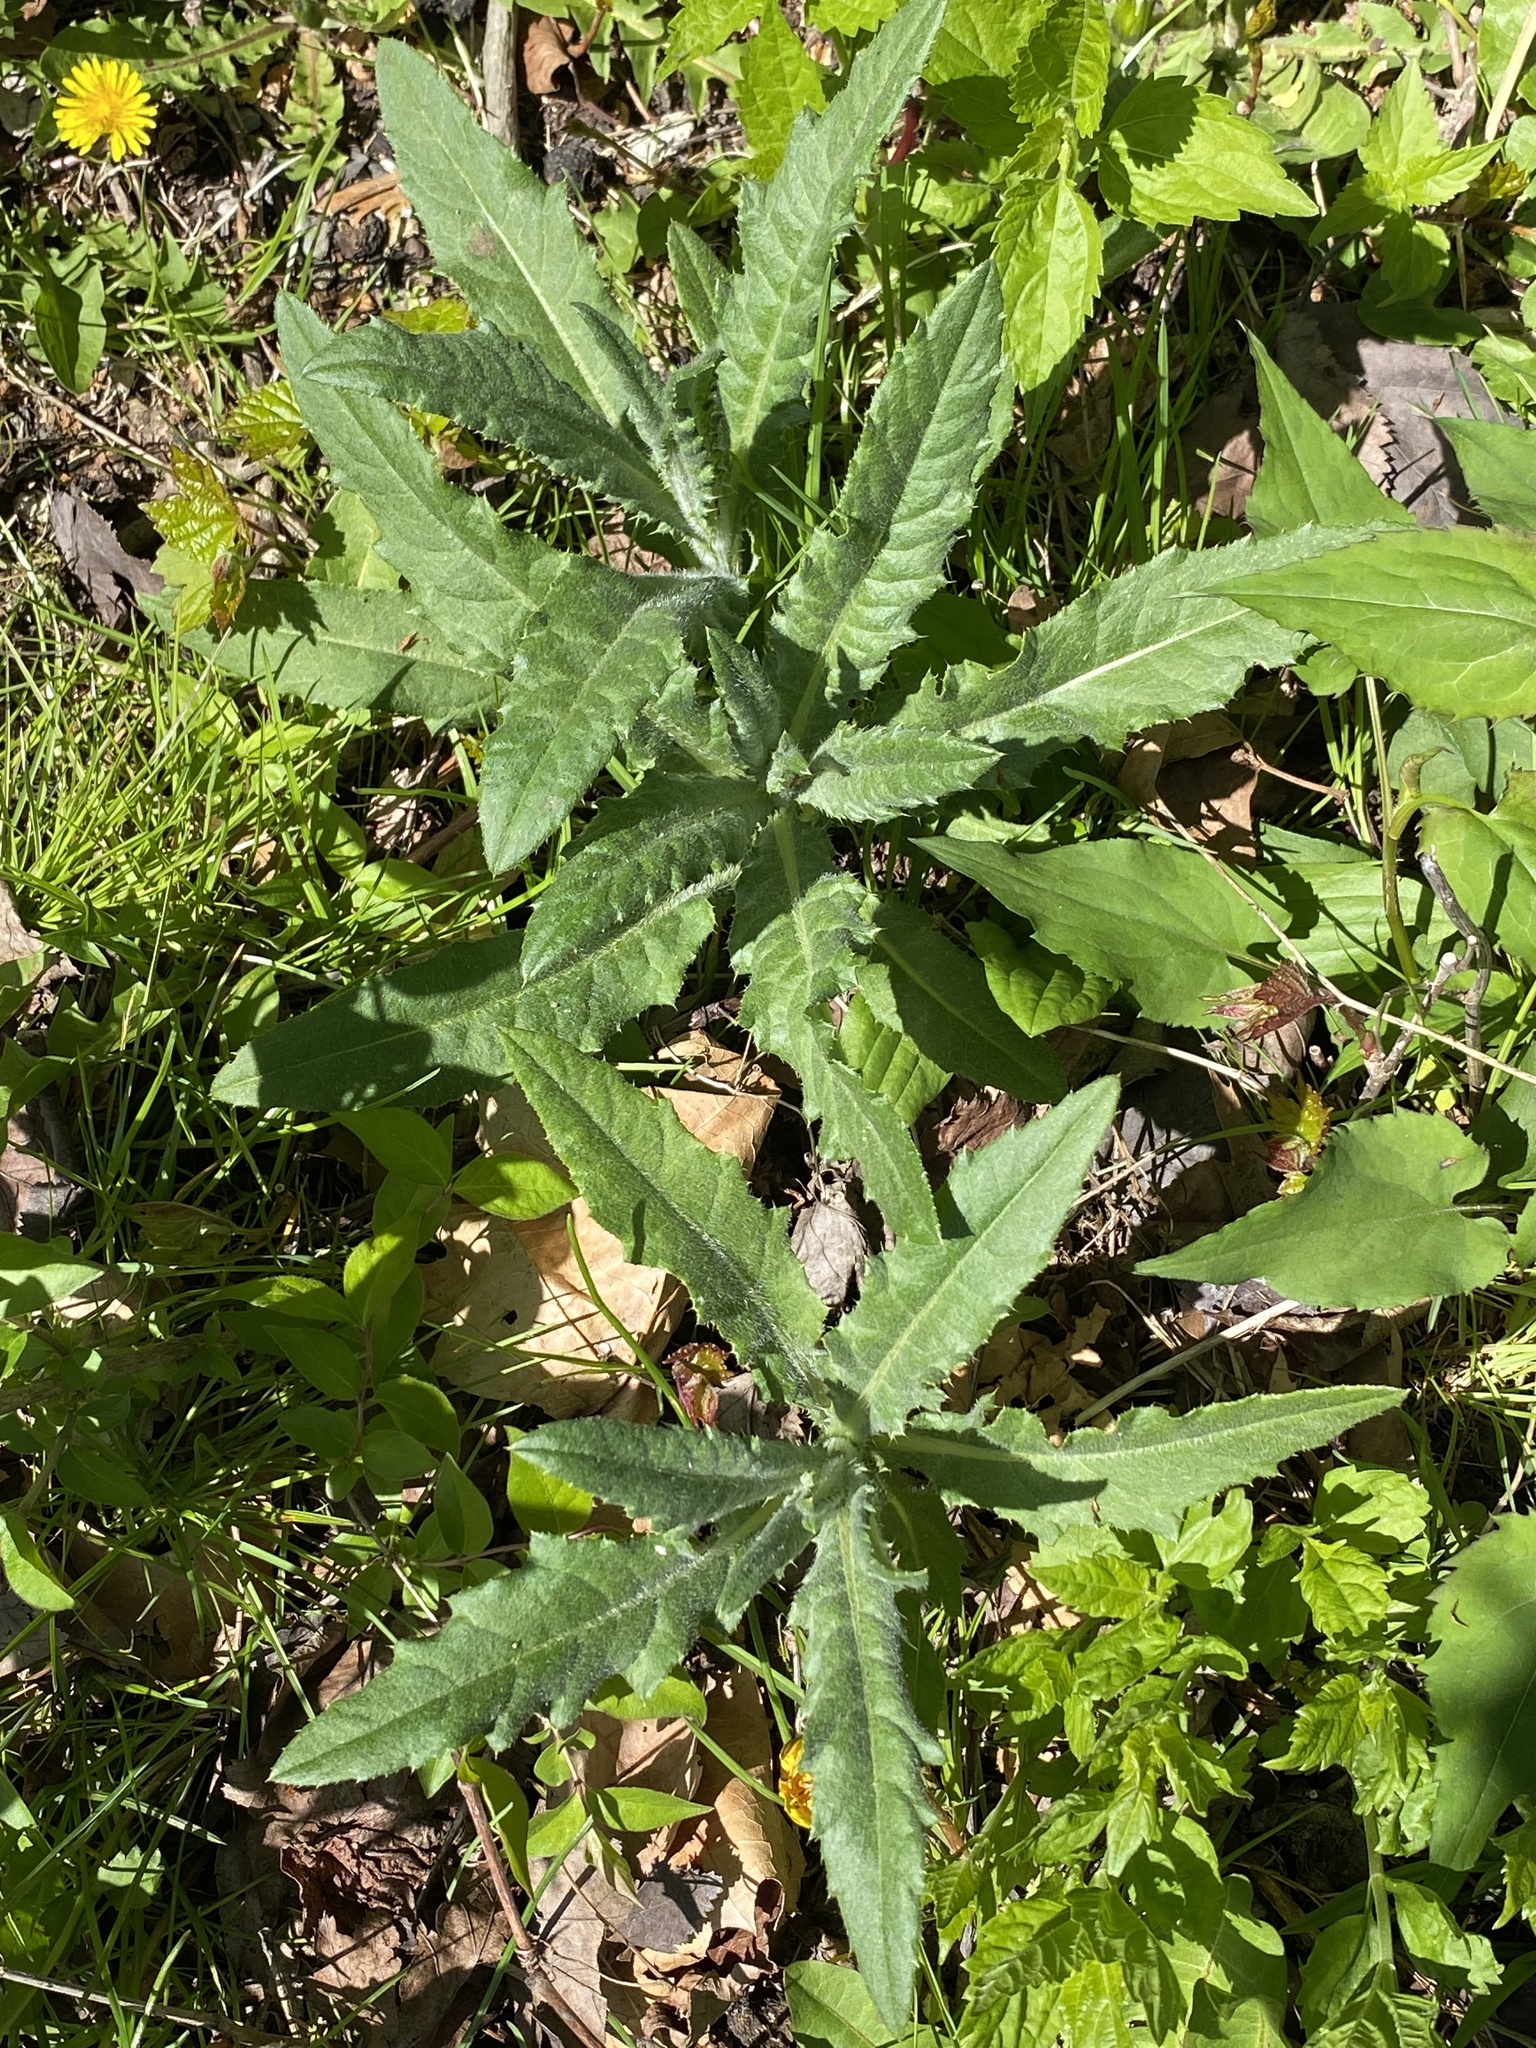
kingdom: Plantae
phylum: Tracheophyta
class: Magnoliopsida
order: Asterales
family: Asteraceae
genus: Cirsium
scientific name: Cirsium arvense
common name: Creeping thistle
